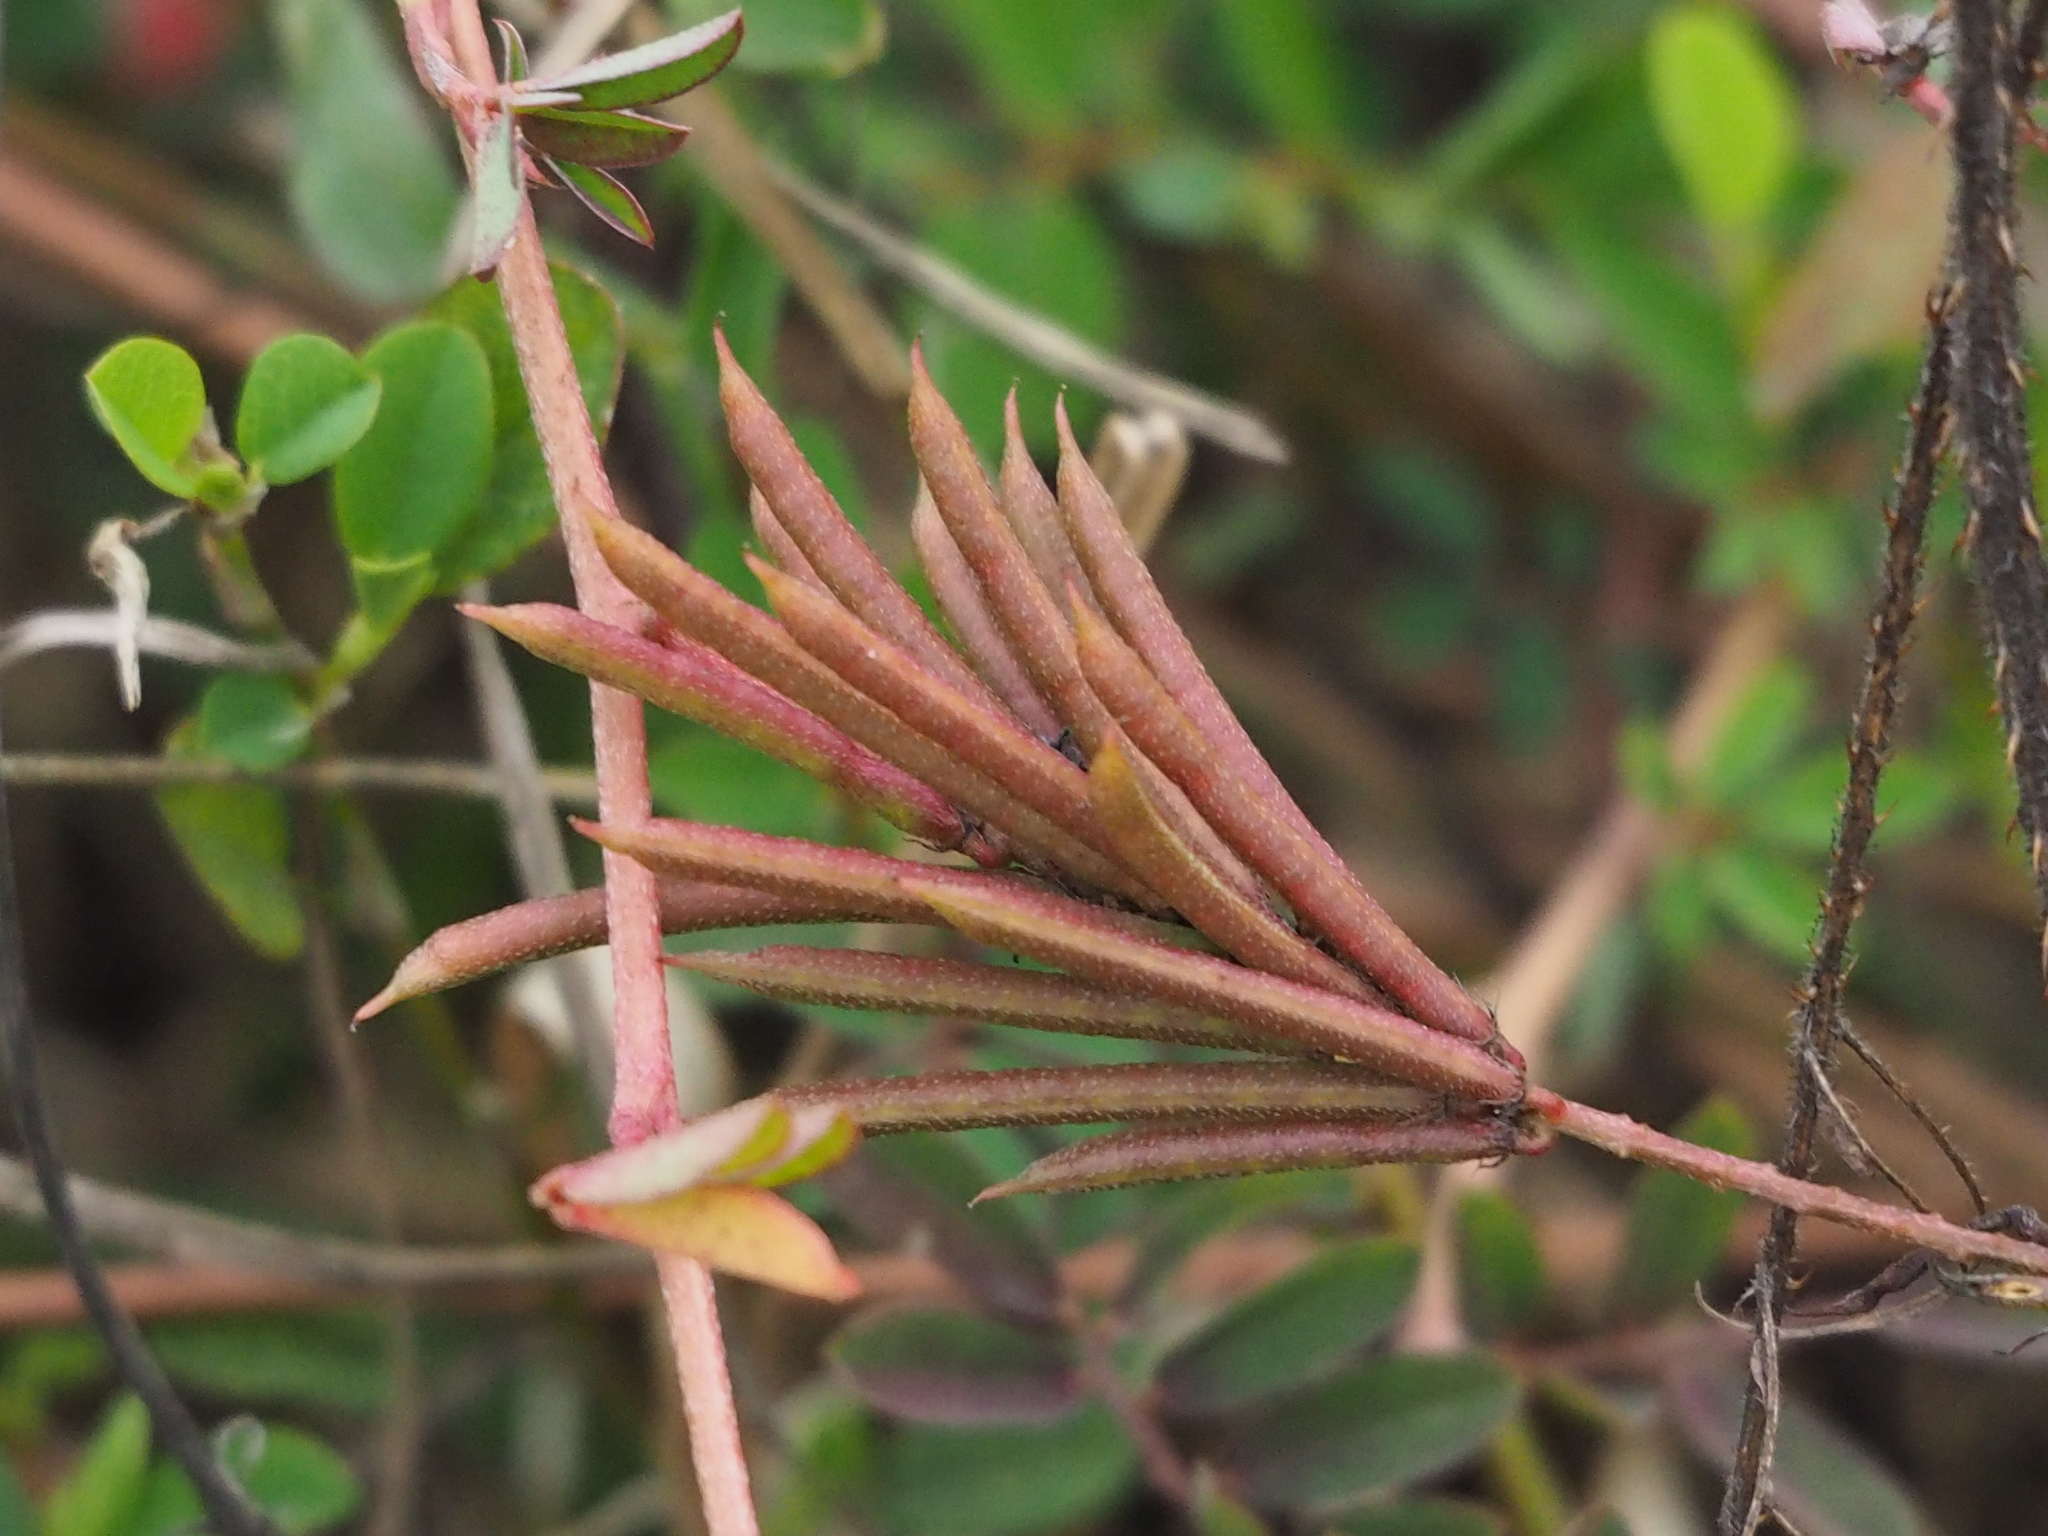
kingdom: Plantae
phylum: Tracheophyta
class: Magnoliopsida
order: Fabales
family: Fabaceae
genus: Indigofera
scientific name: Indigofera hendecaphylla
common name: Trailing indigo
